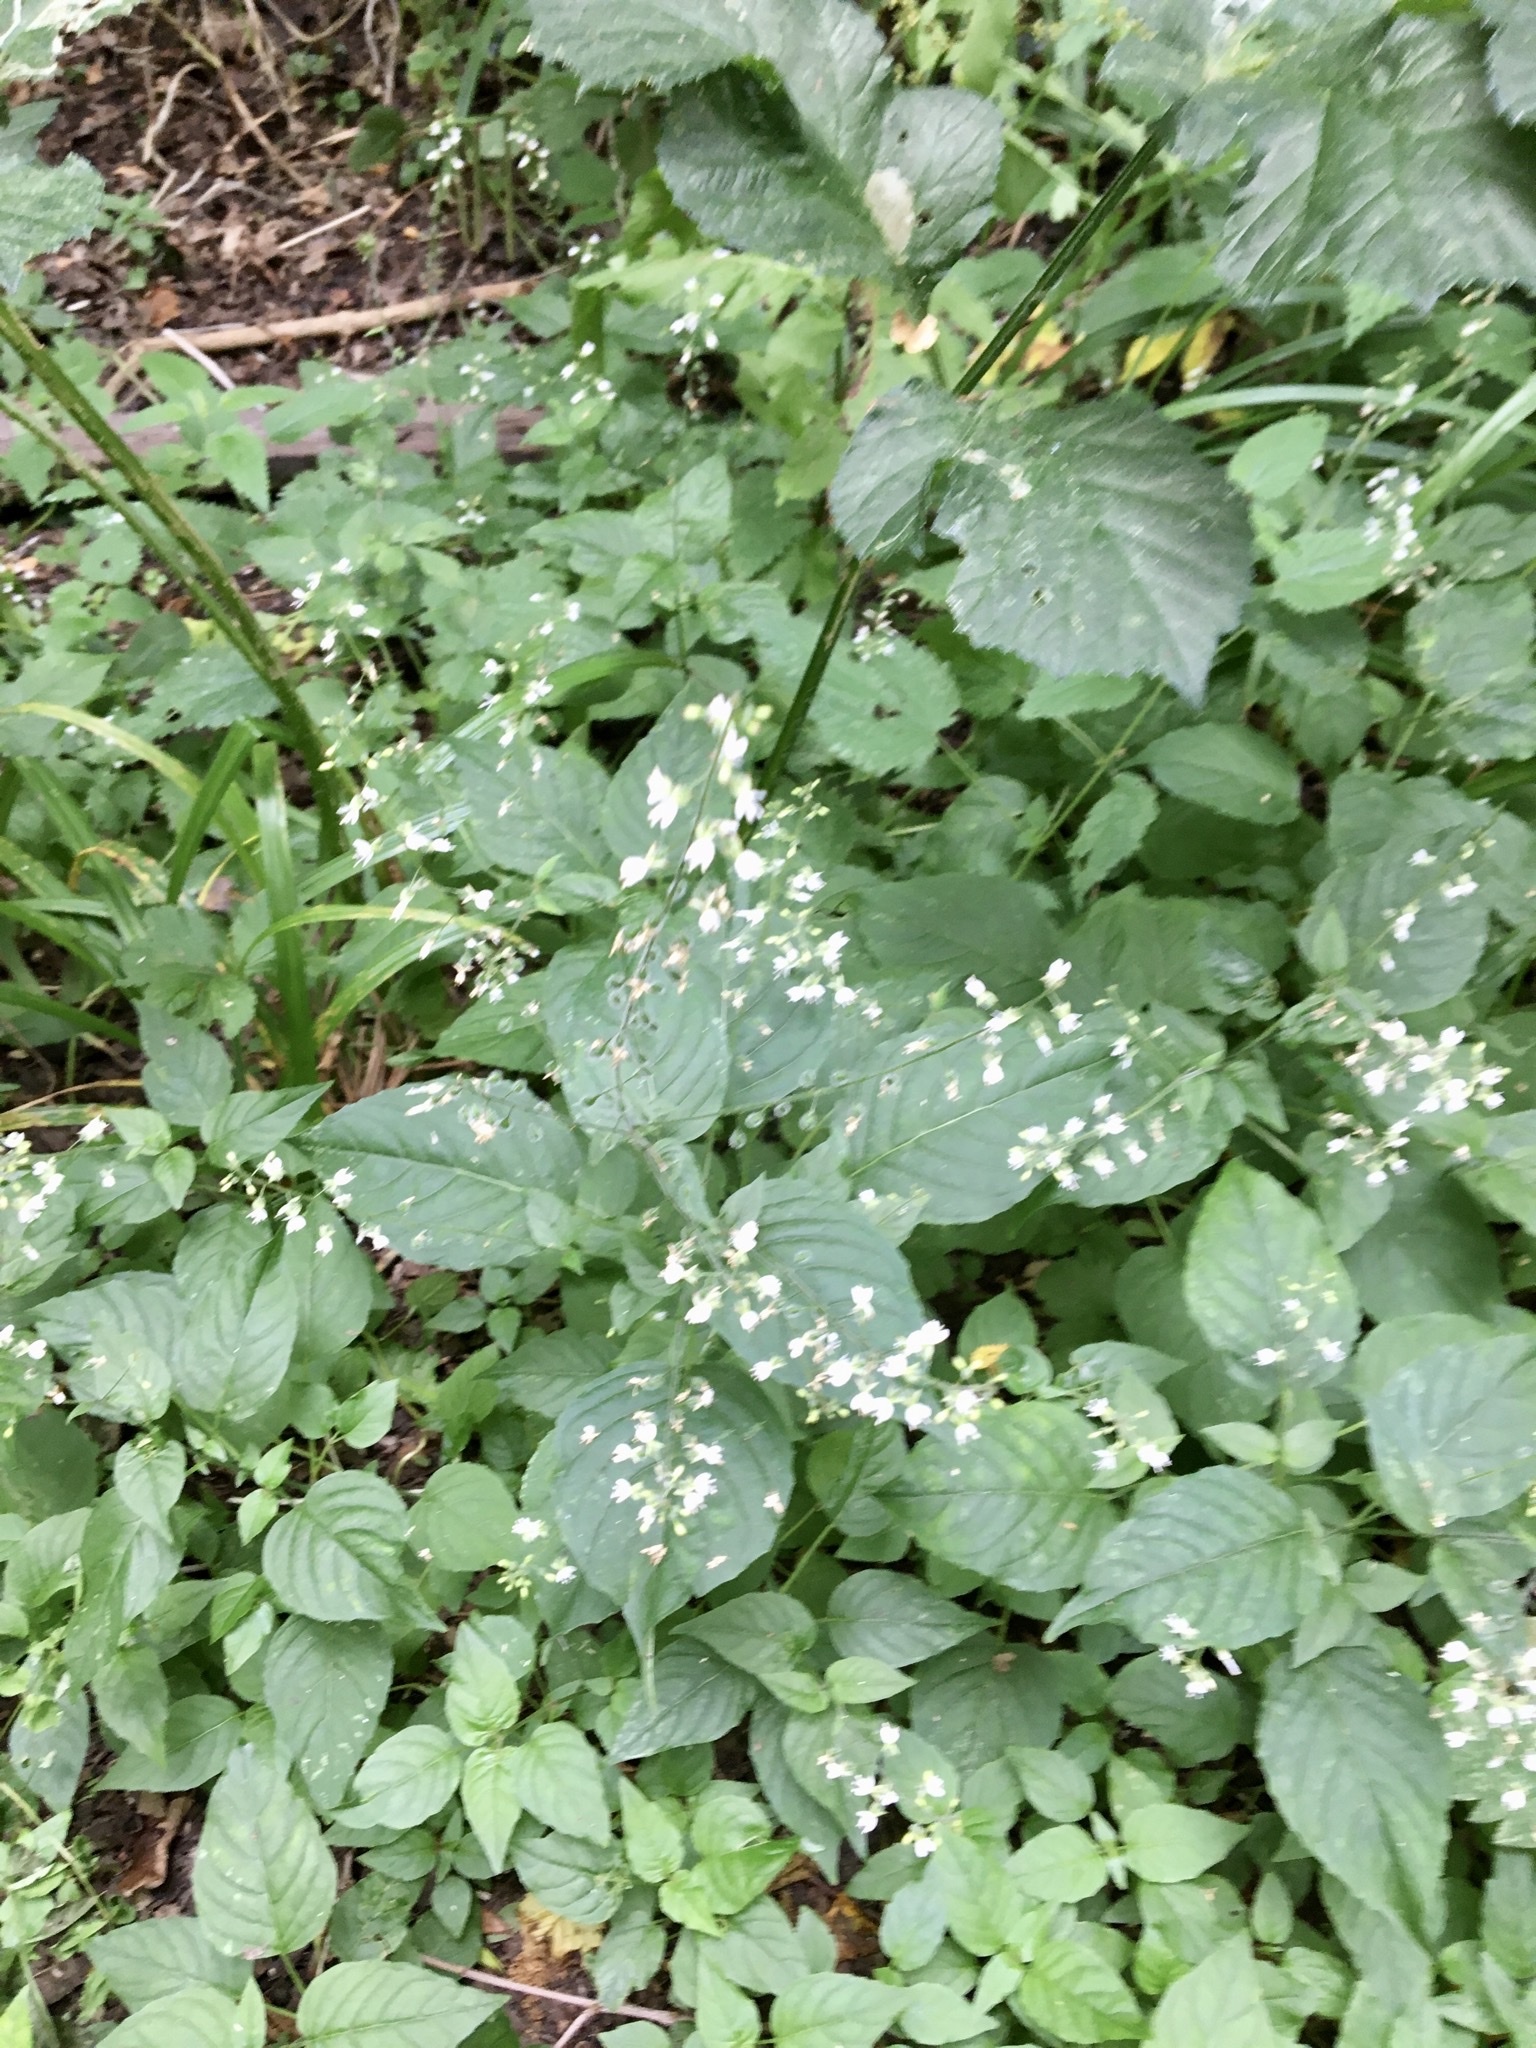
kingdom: Plantae
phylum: Tracheophyta
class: Magnoliopsida
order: Myrtales
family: Onagraceae
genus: Circaea
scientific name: Circaea lutetiana
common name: Enchanter's-nightshade
